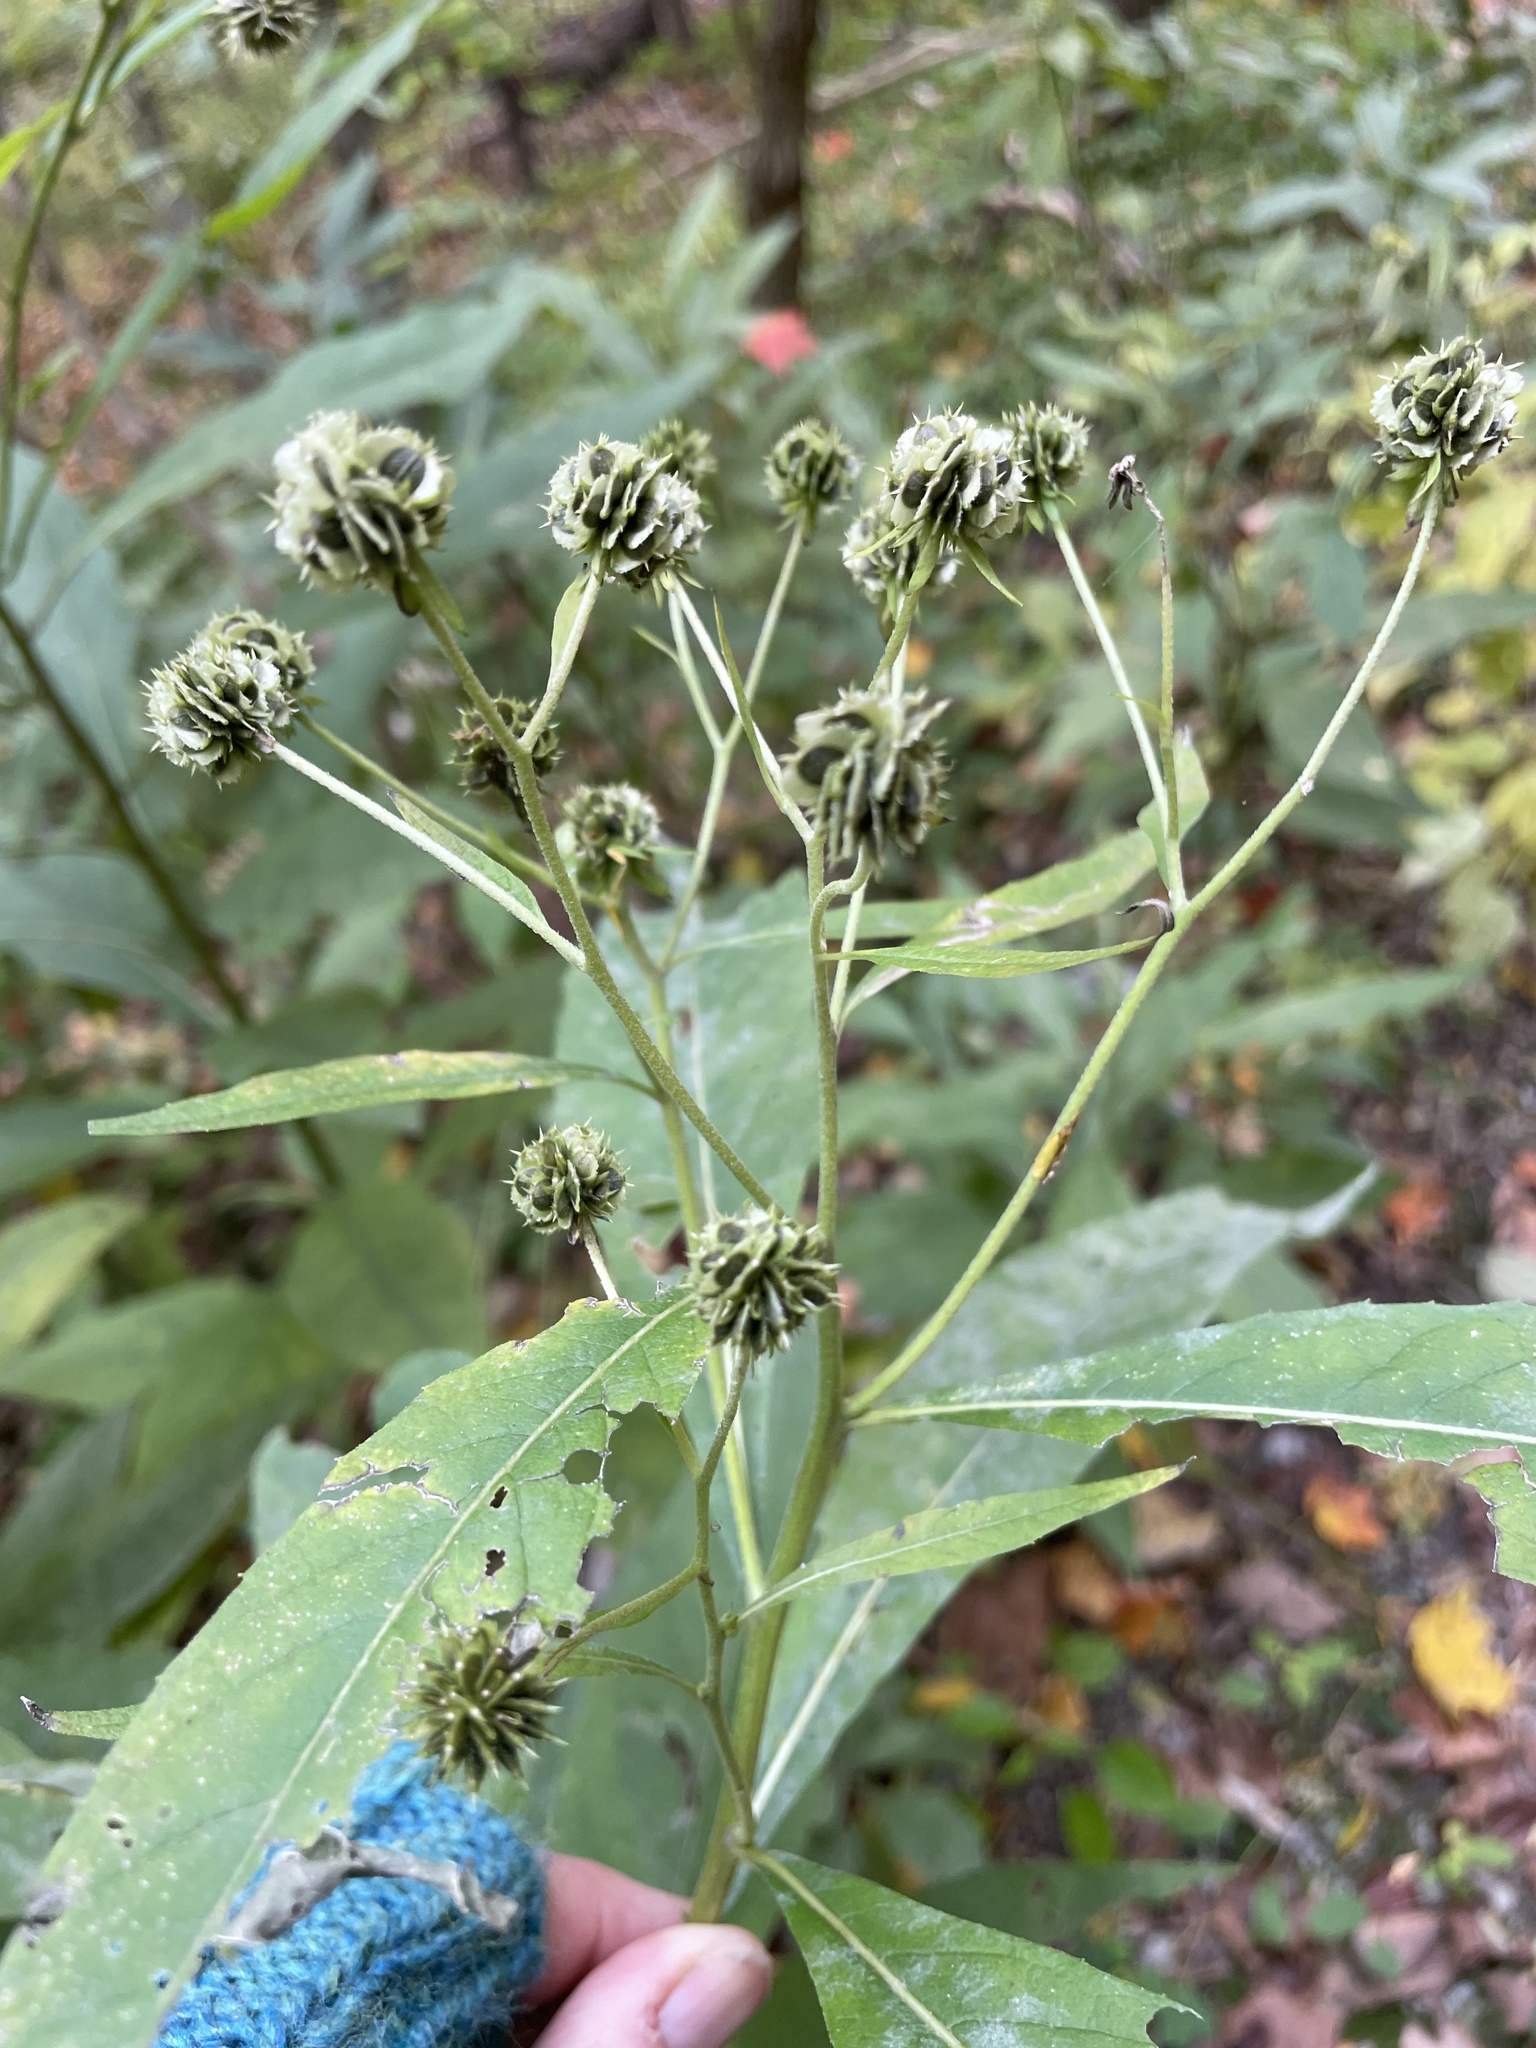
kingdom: Plantae
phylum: Tracheophyta
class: Magnoliopsida
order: Asterales
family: Asteraceae
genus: Verbesina
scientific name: Verbesina alternifolia
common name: Wingstem
